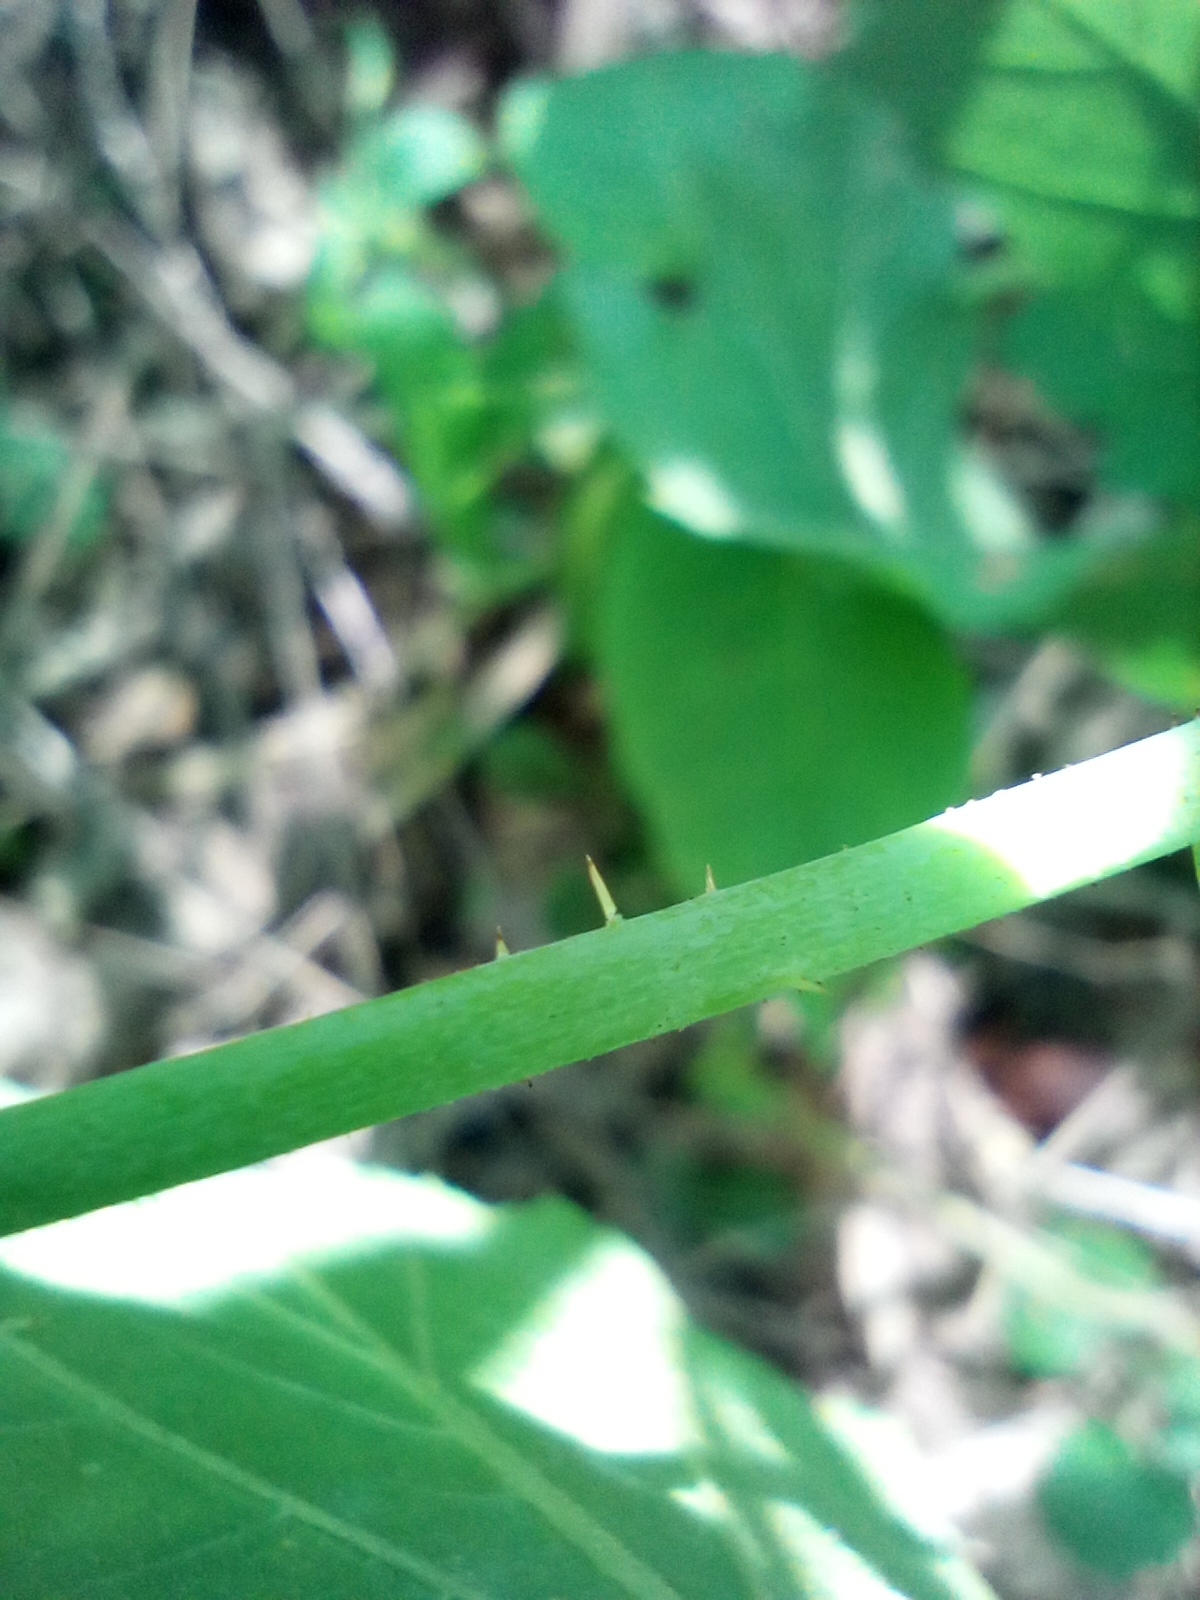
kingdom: Plantae
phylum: Tracheophyta
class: Magnoliopsida
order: Rosales
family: Rosaceae
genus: Rubus
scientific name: Rubus caesius
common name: Dewberry
